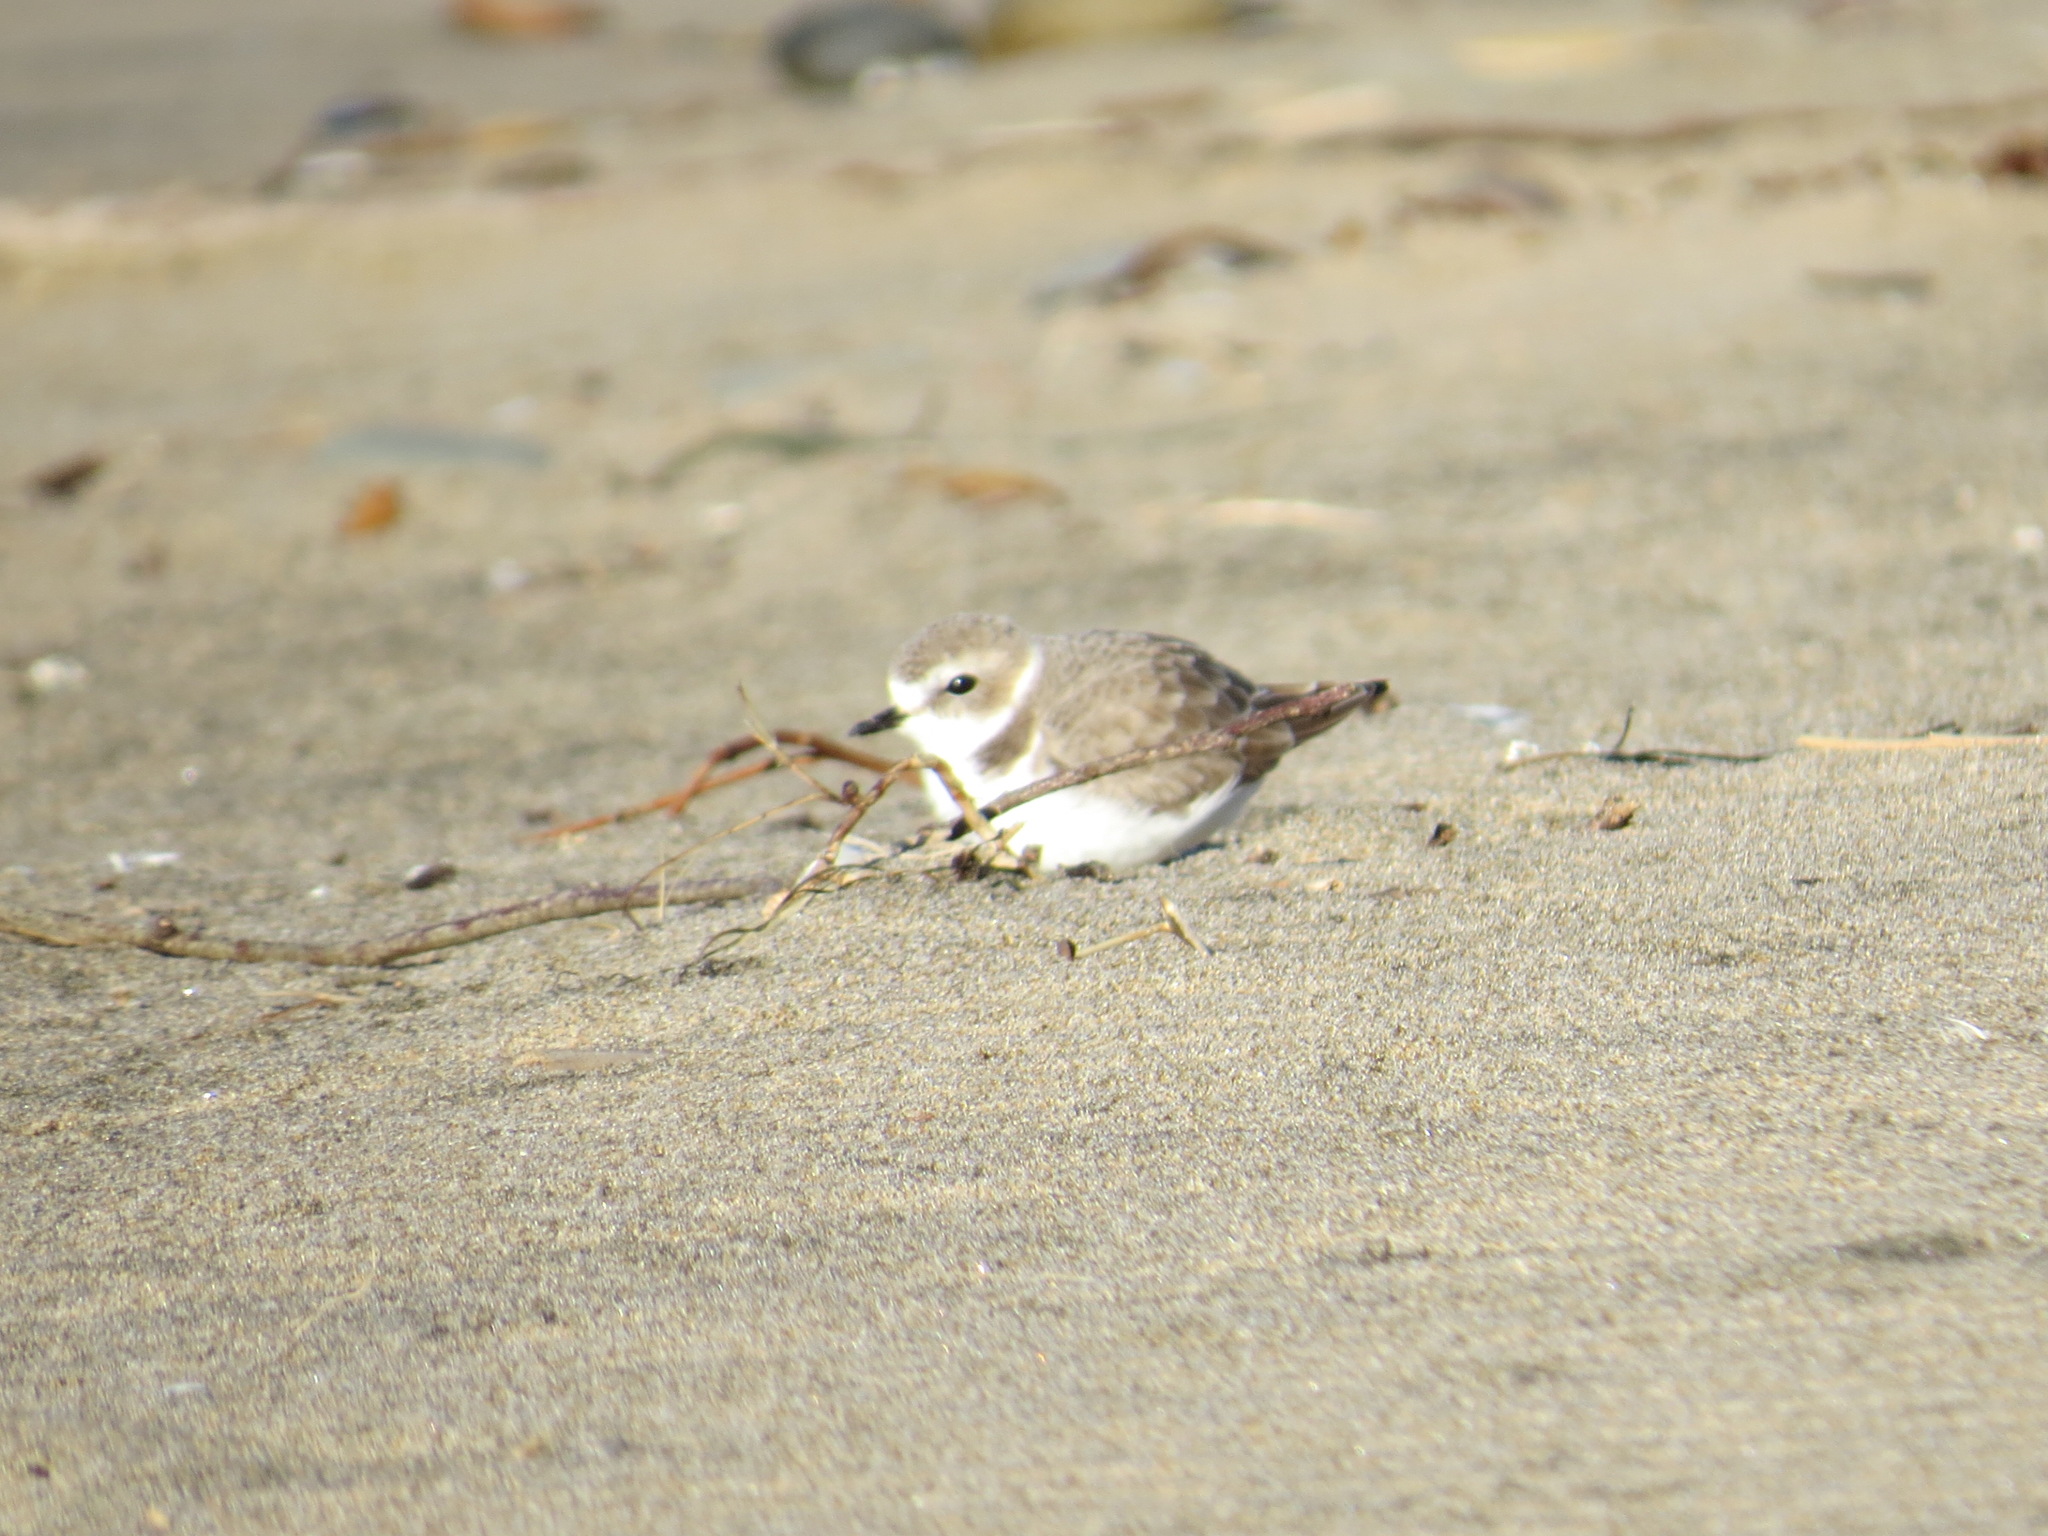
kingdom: Animalia
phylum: Chordata
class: Aves
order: Charadriiformes
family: Charadriidae
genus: Anarhynchus
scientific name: Anarhynchus
